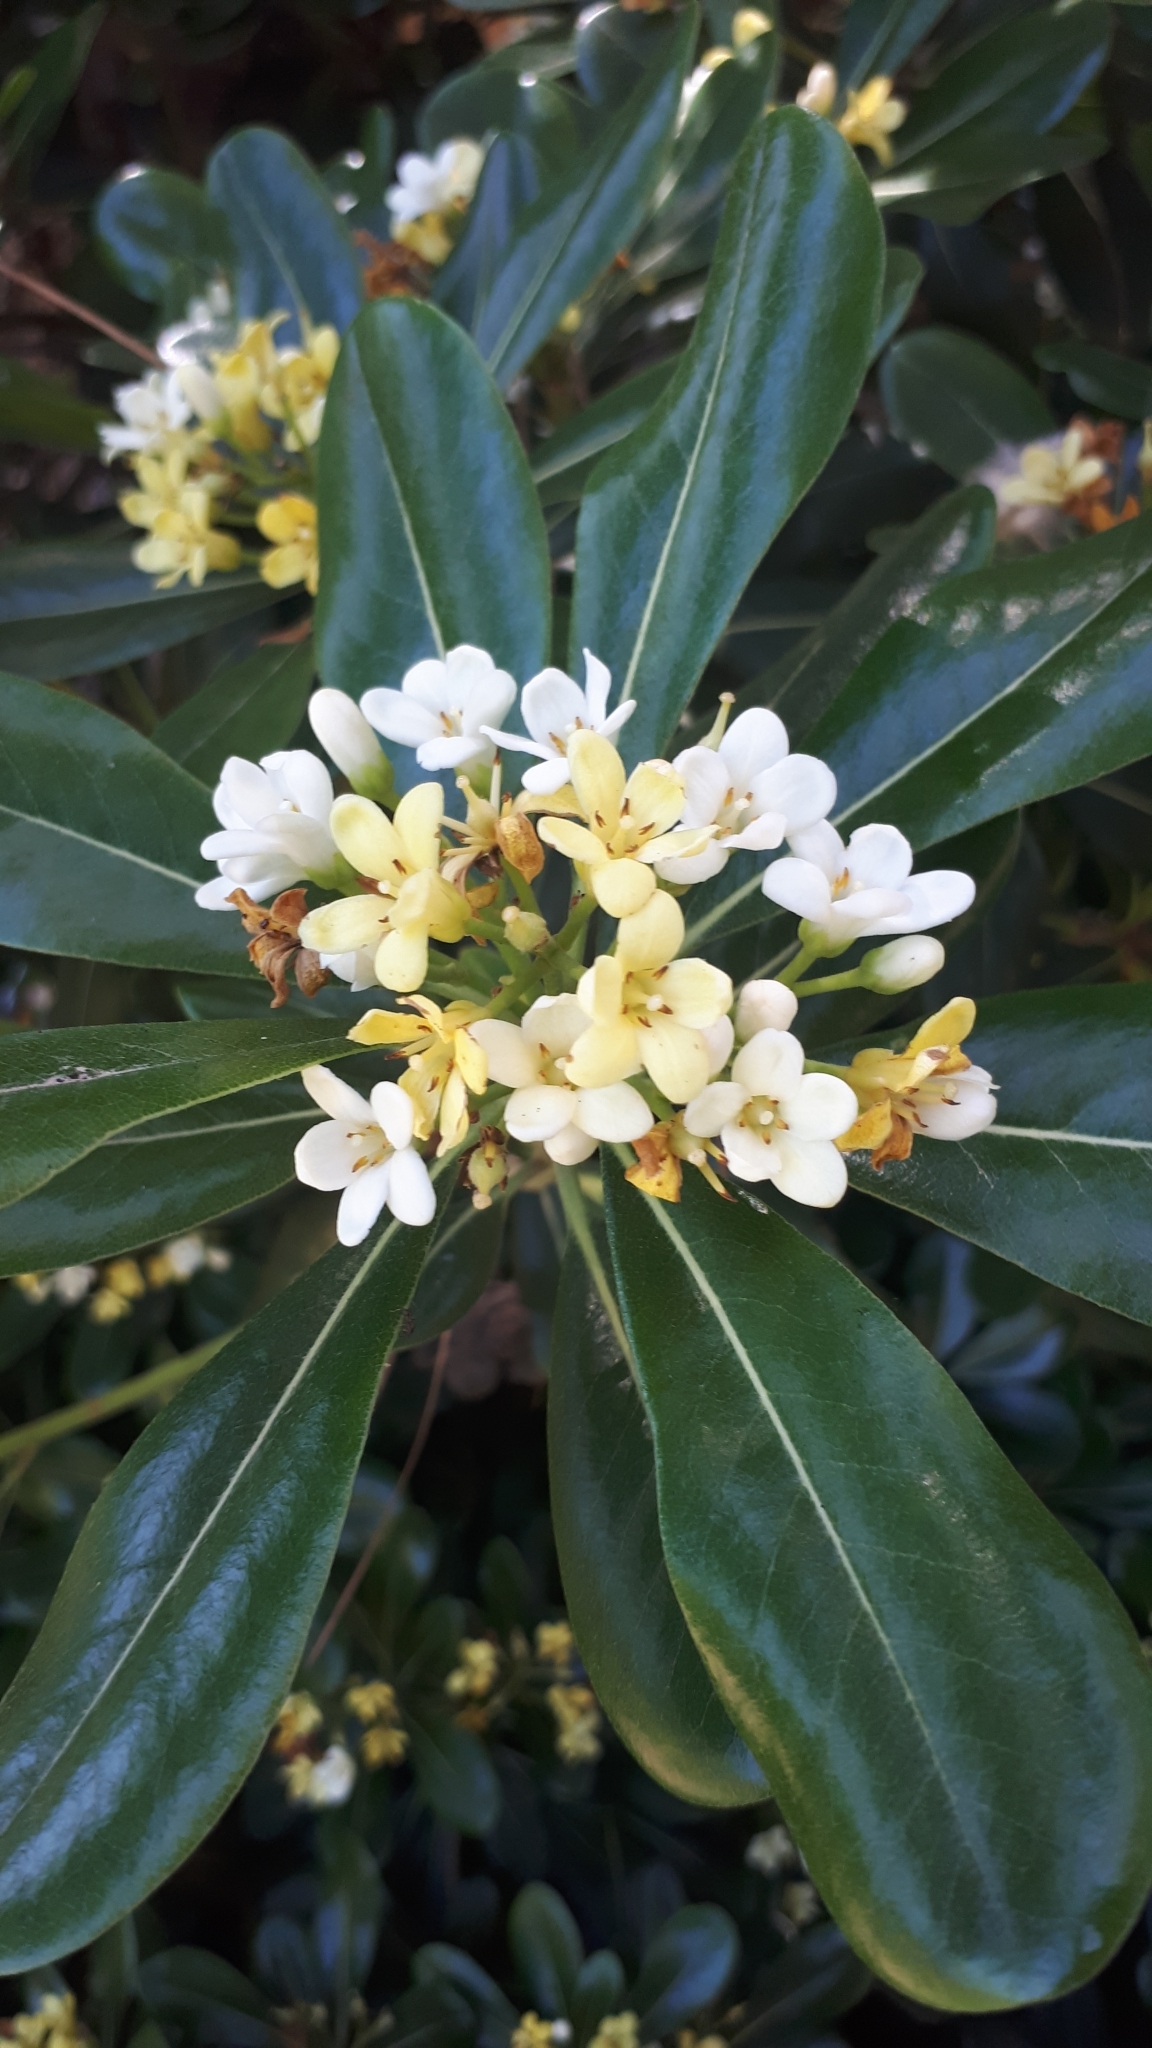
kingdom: Plantae
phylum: Tracheophyta
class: Magnoliopsida
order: Apiales
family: Pittosporaceae
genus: Pittosporum
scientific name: Pittosporum tobira
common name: Japanese cheesewood
